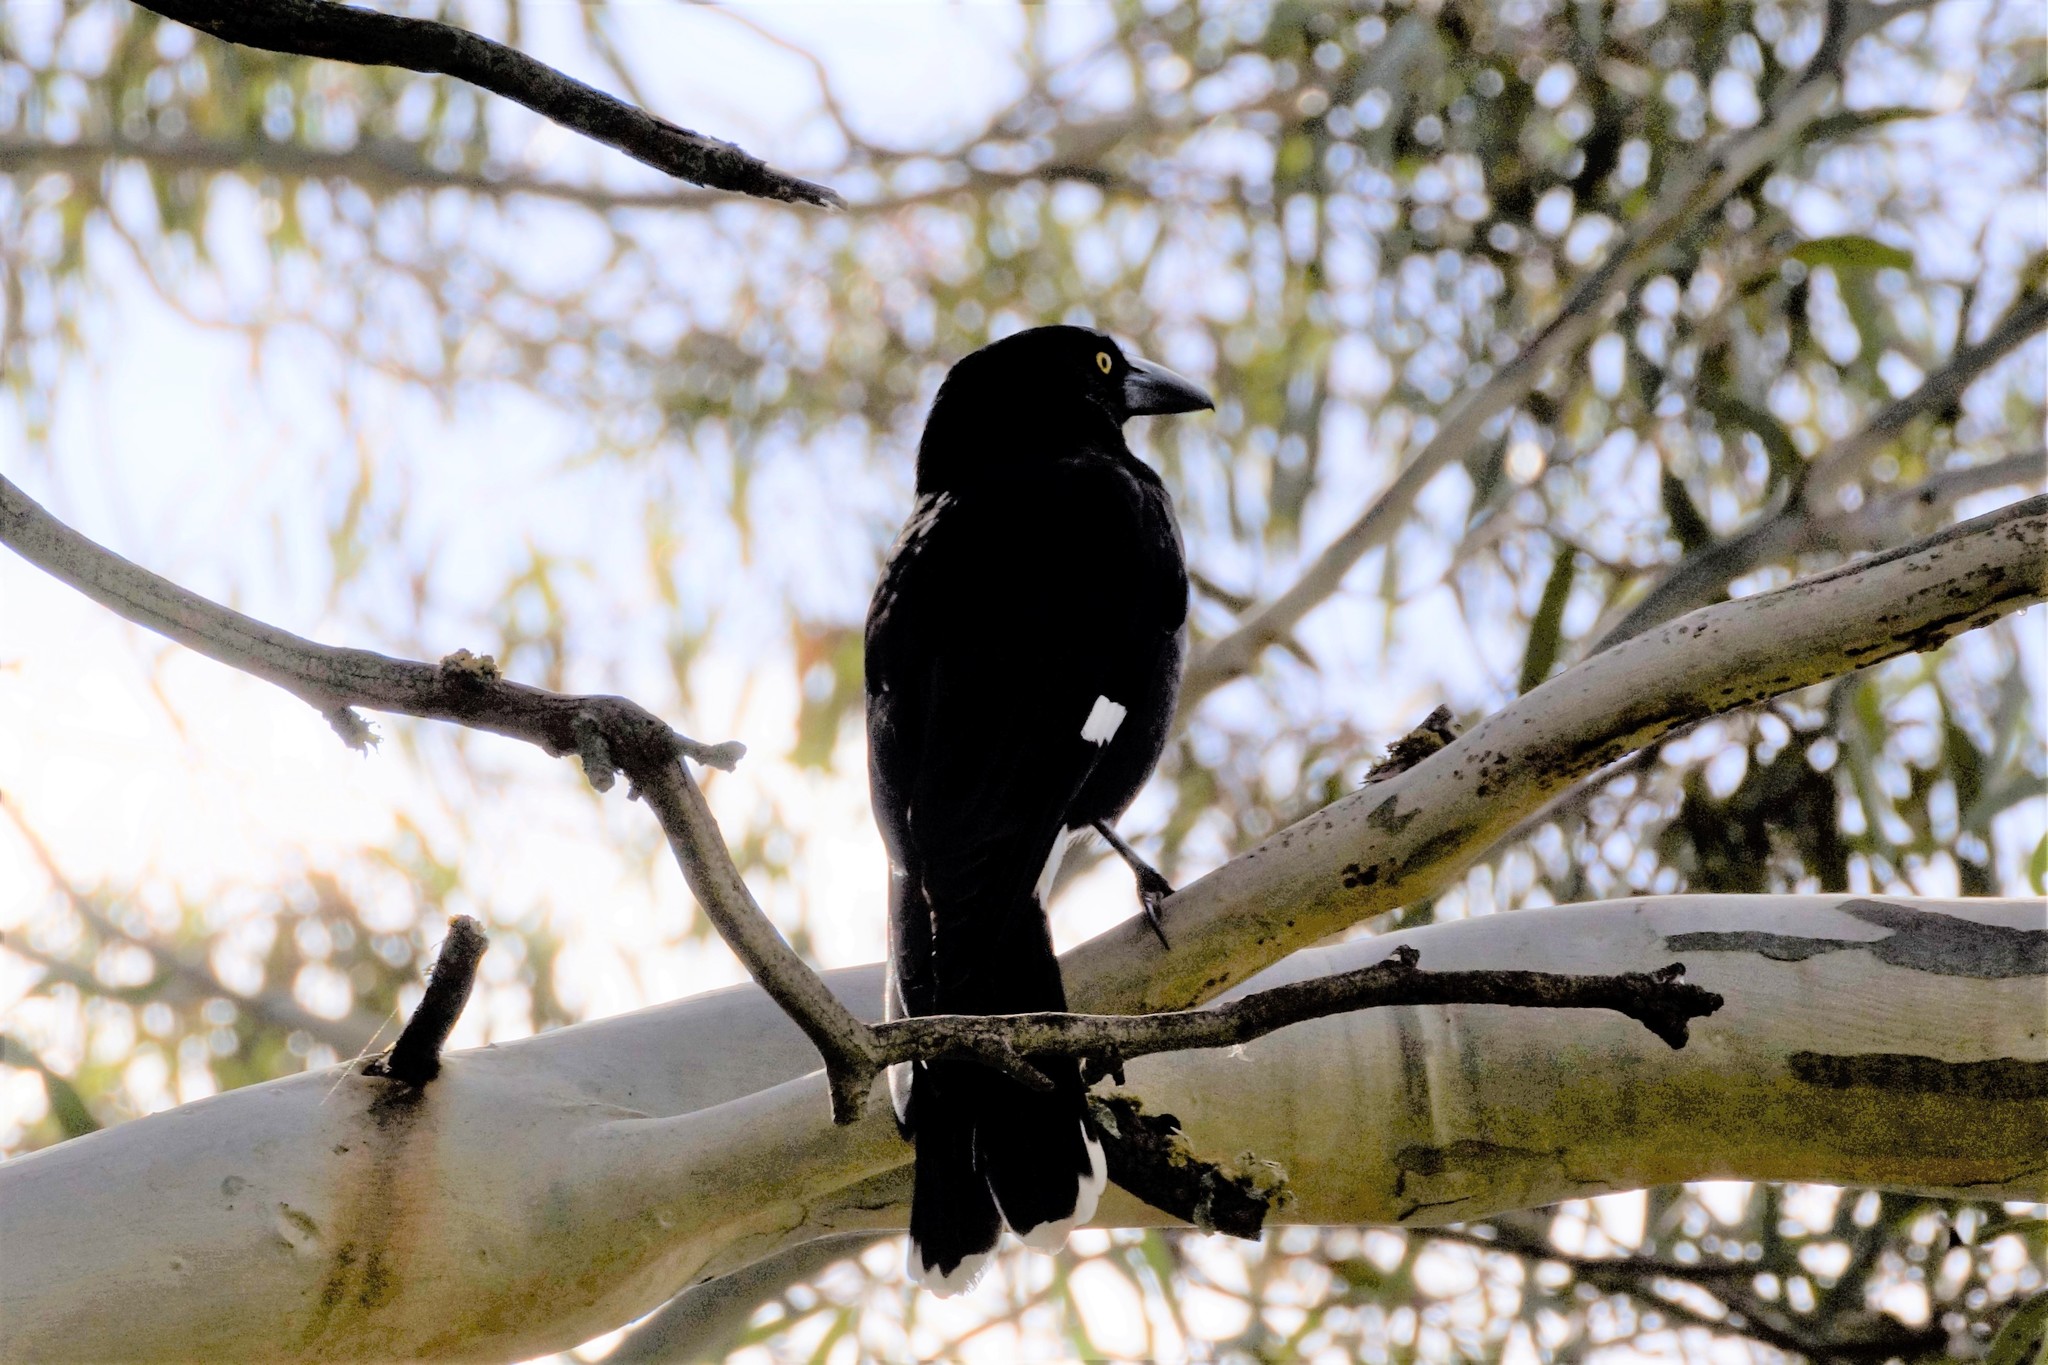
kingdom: Animalia
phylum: Chordata
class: Aves
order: Passeriformes
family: Cracticidae
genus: Strepera
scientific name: Strepera graculina
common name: Pied currawong
